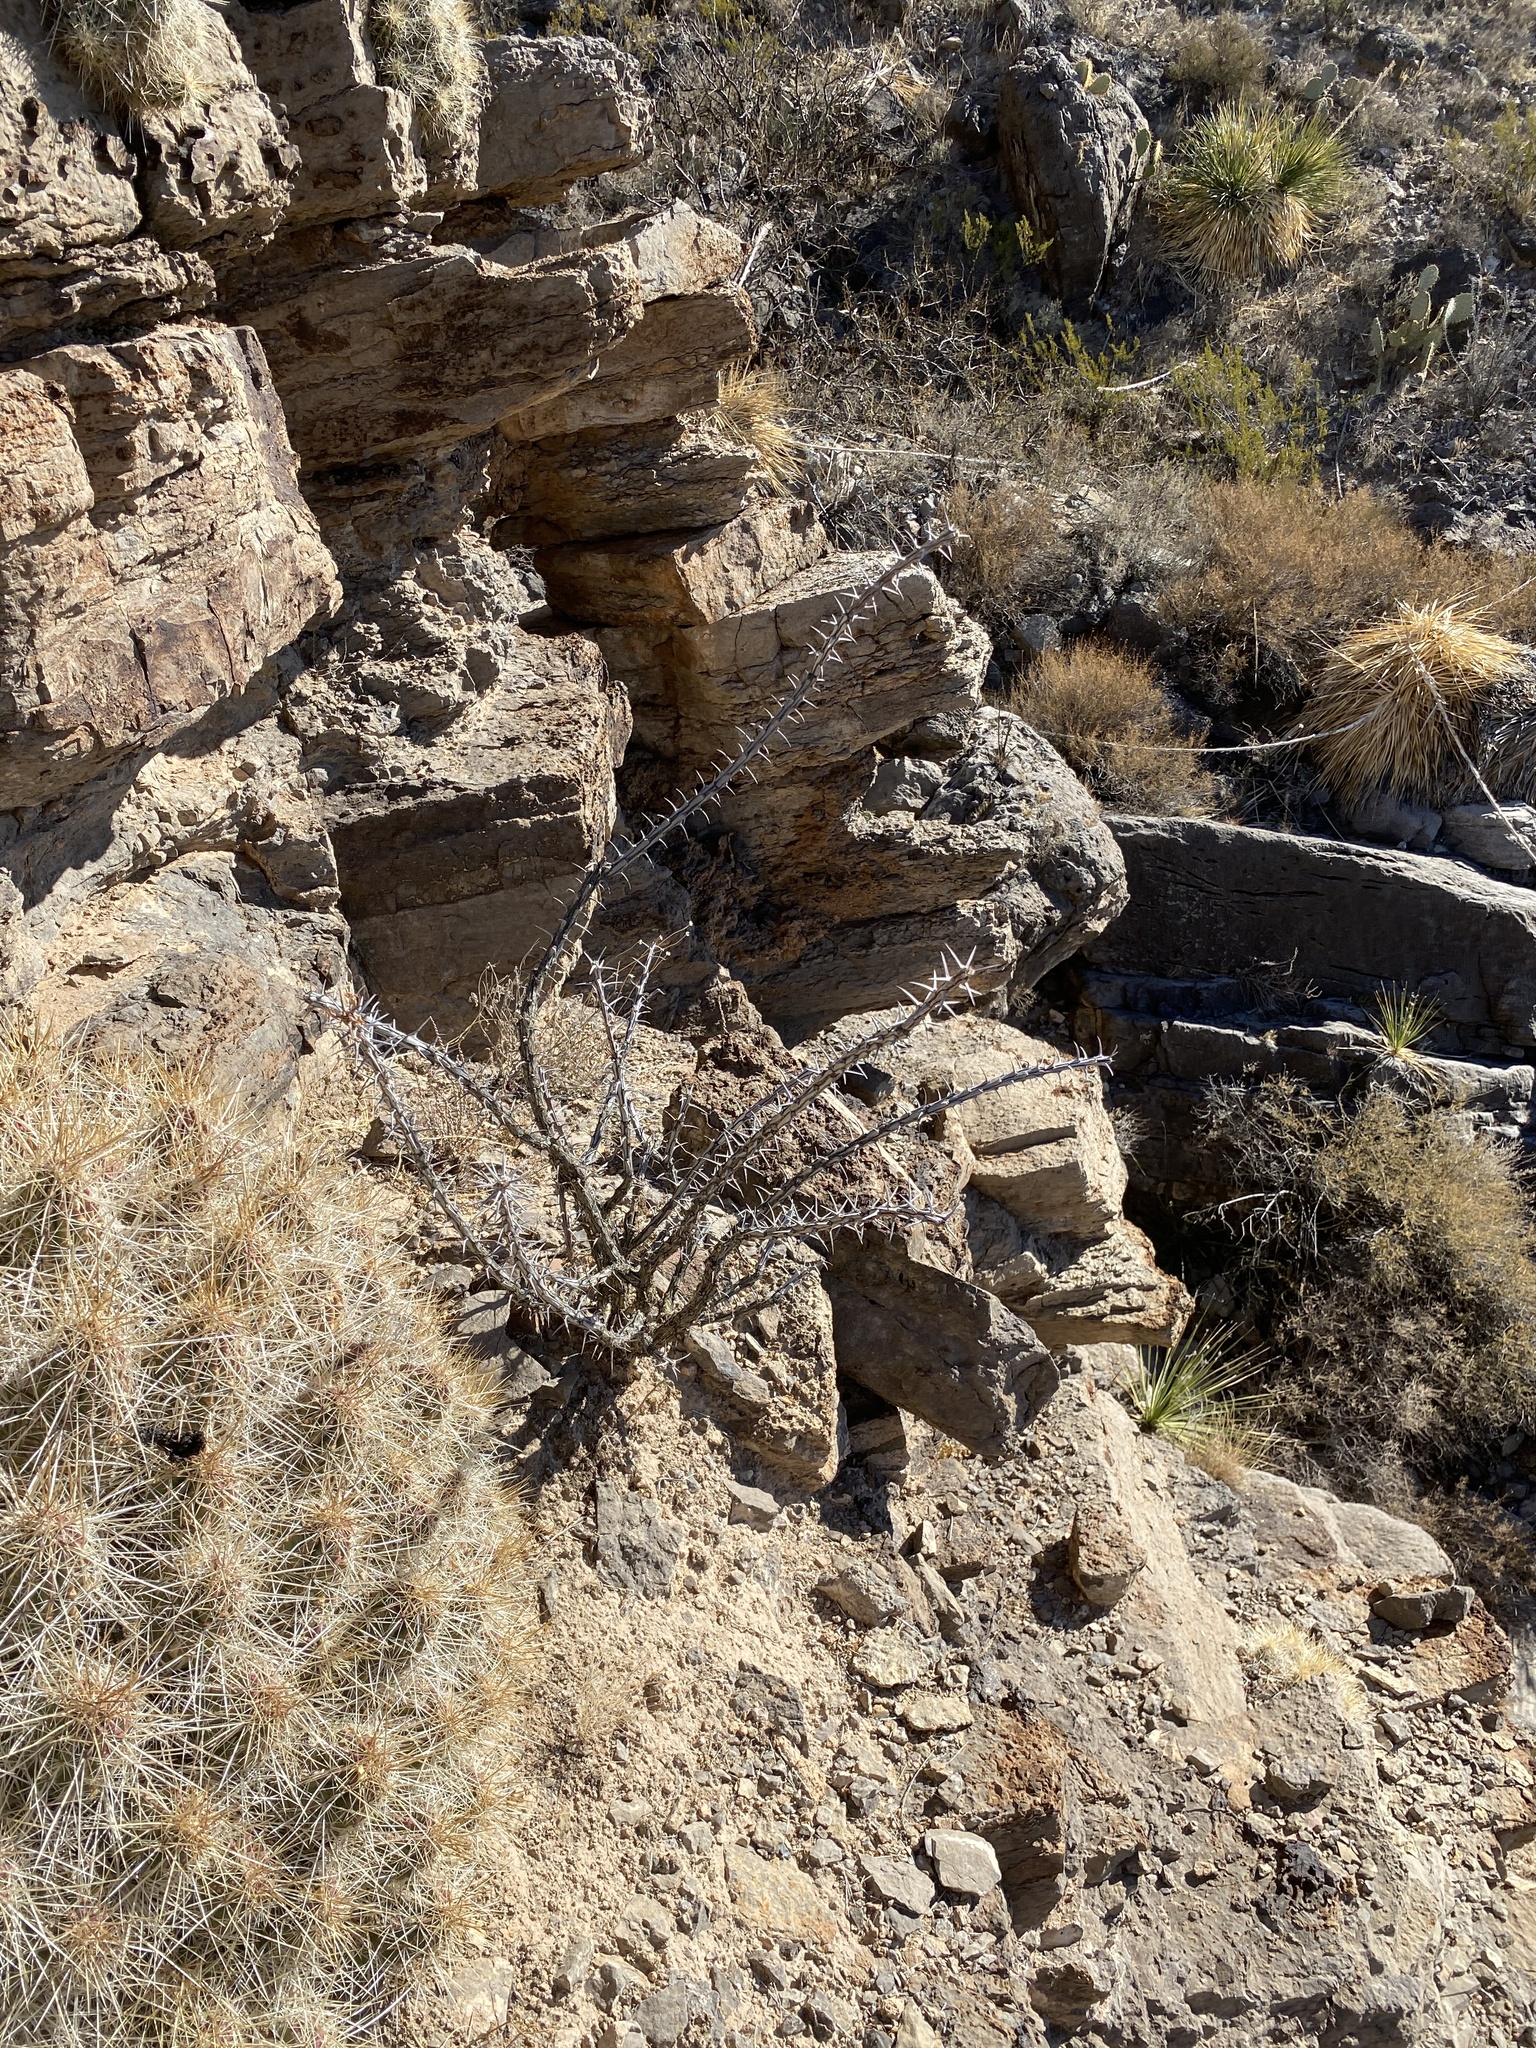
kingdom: Plantae
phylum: Tracheophyta
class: Magnoliopsida
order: Ericales
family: Fouquieriaceae
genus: Fouquieria
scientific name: Fouquieria splendens
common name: Vine-cactus
